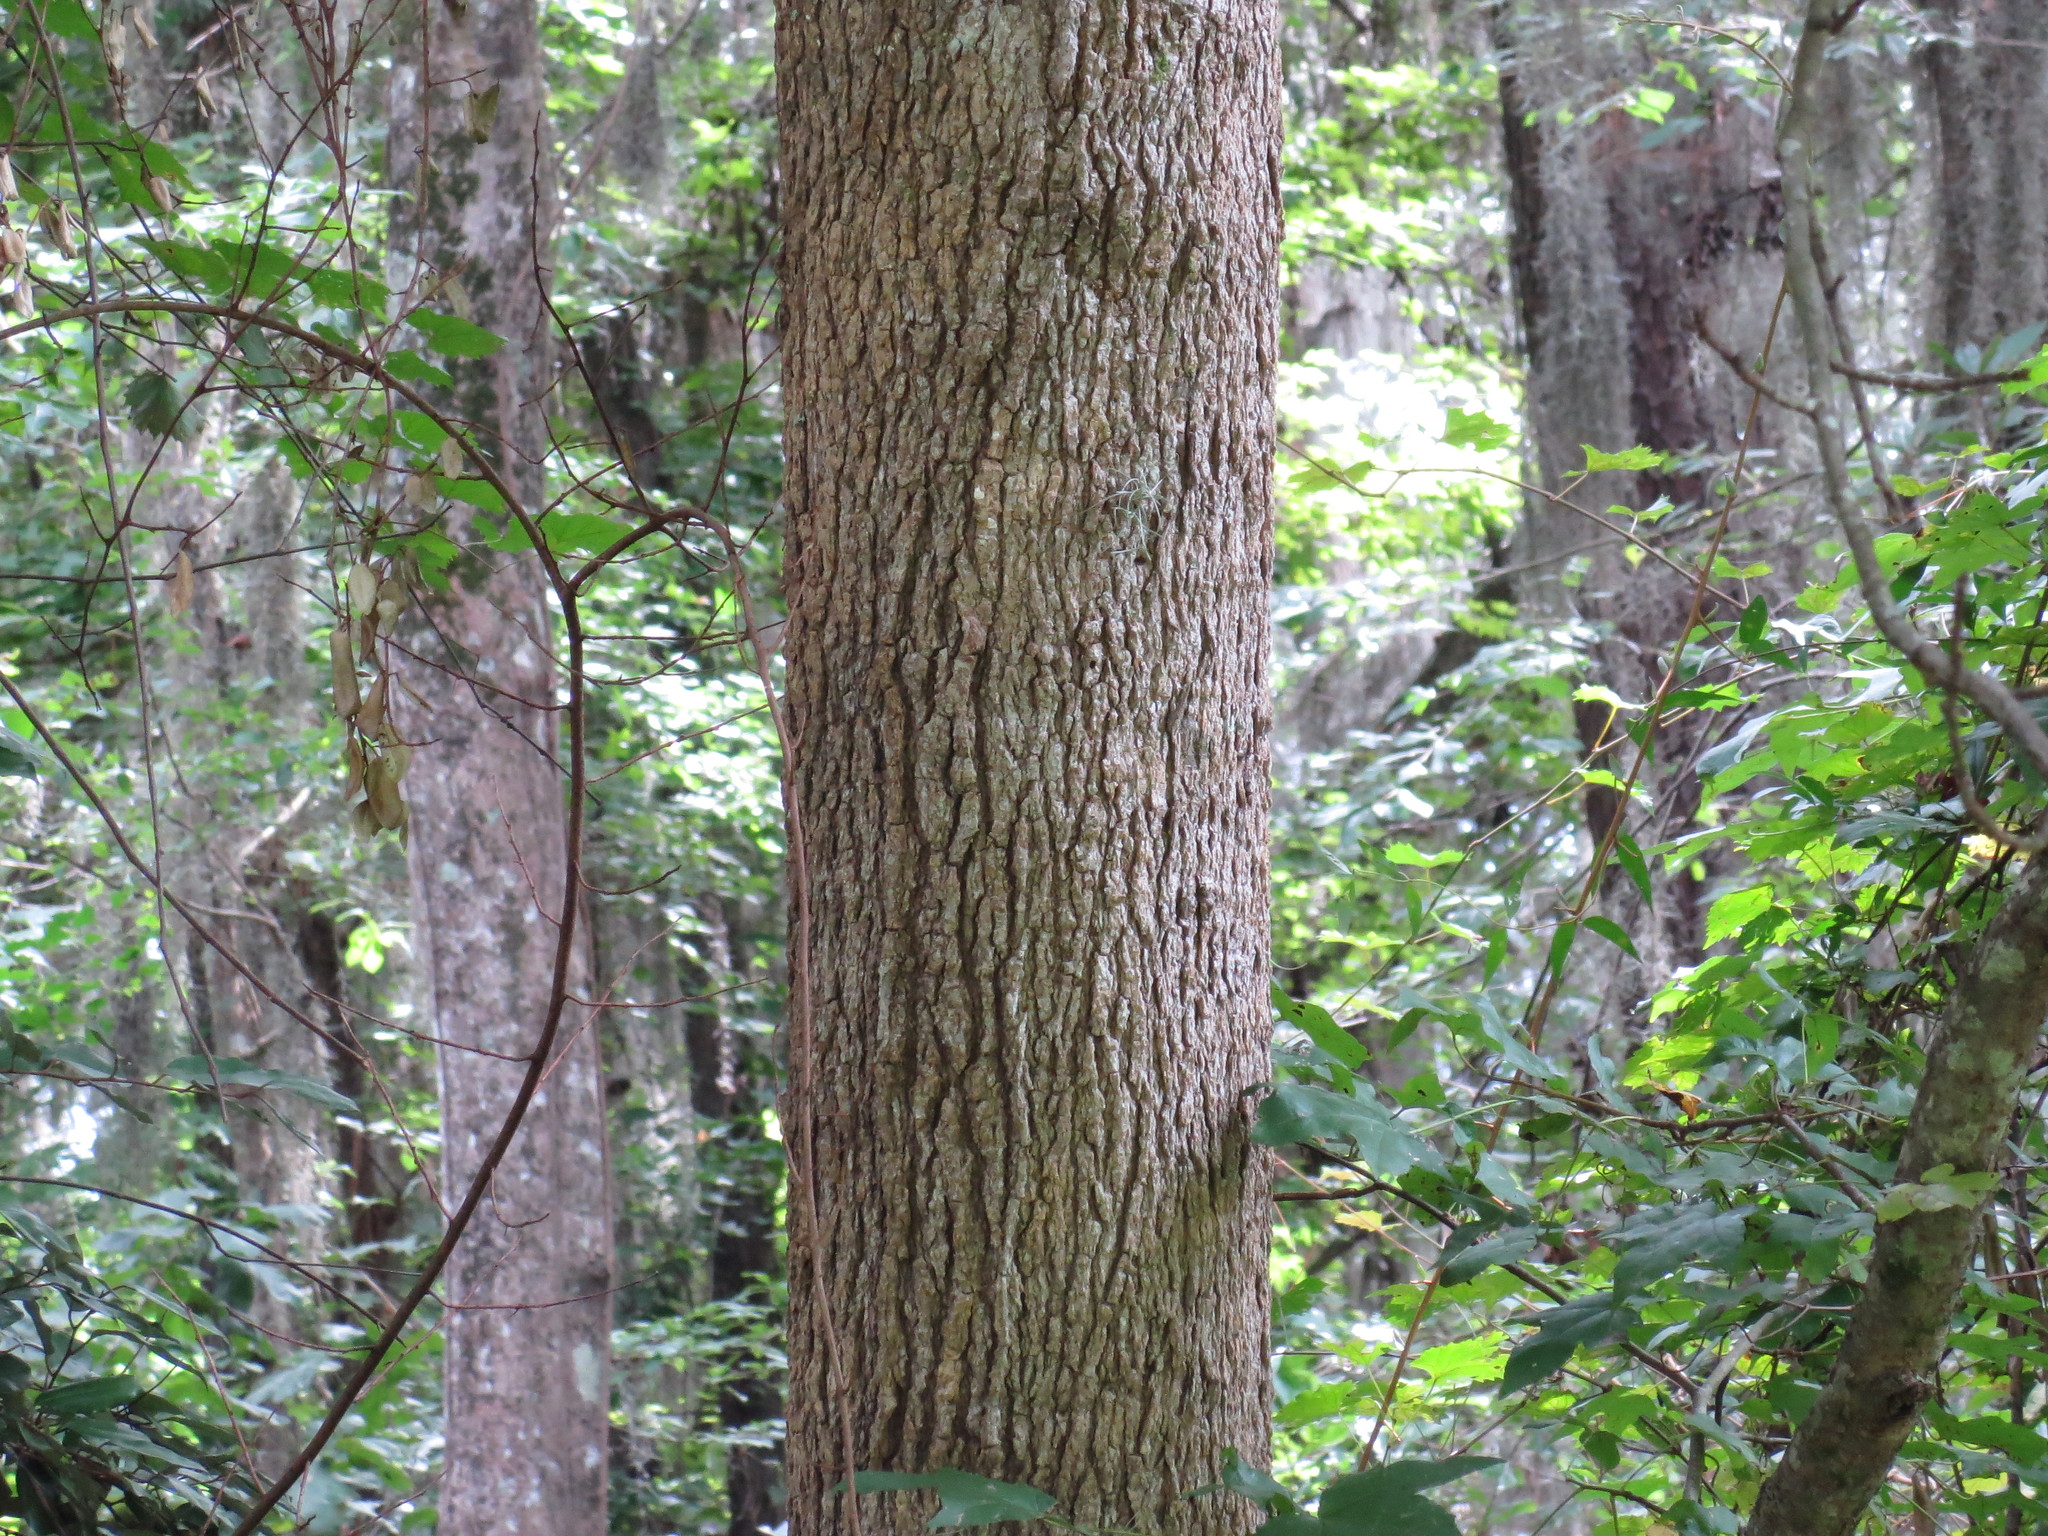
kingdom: Plantae
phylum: Tracheophyta
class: Magnoliopsida
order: Saxifragales
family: Altingiaceae
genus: Liquidambar
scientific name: Liquidambar styraciflua
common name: Sweet gum
